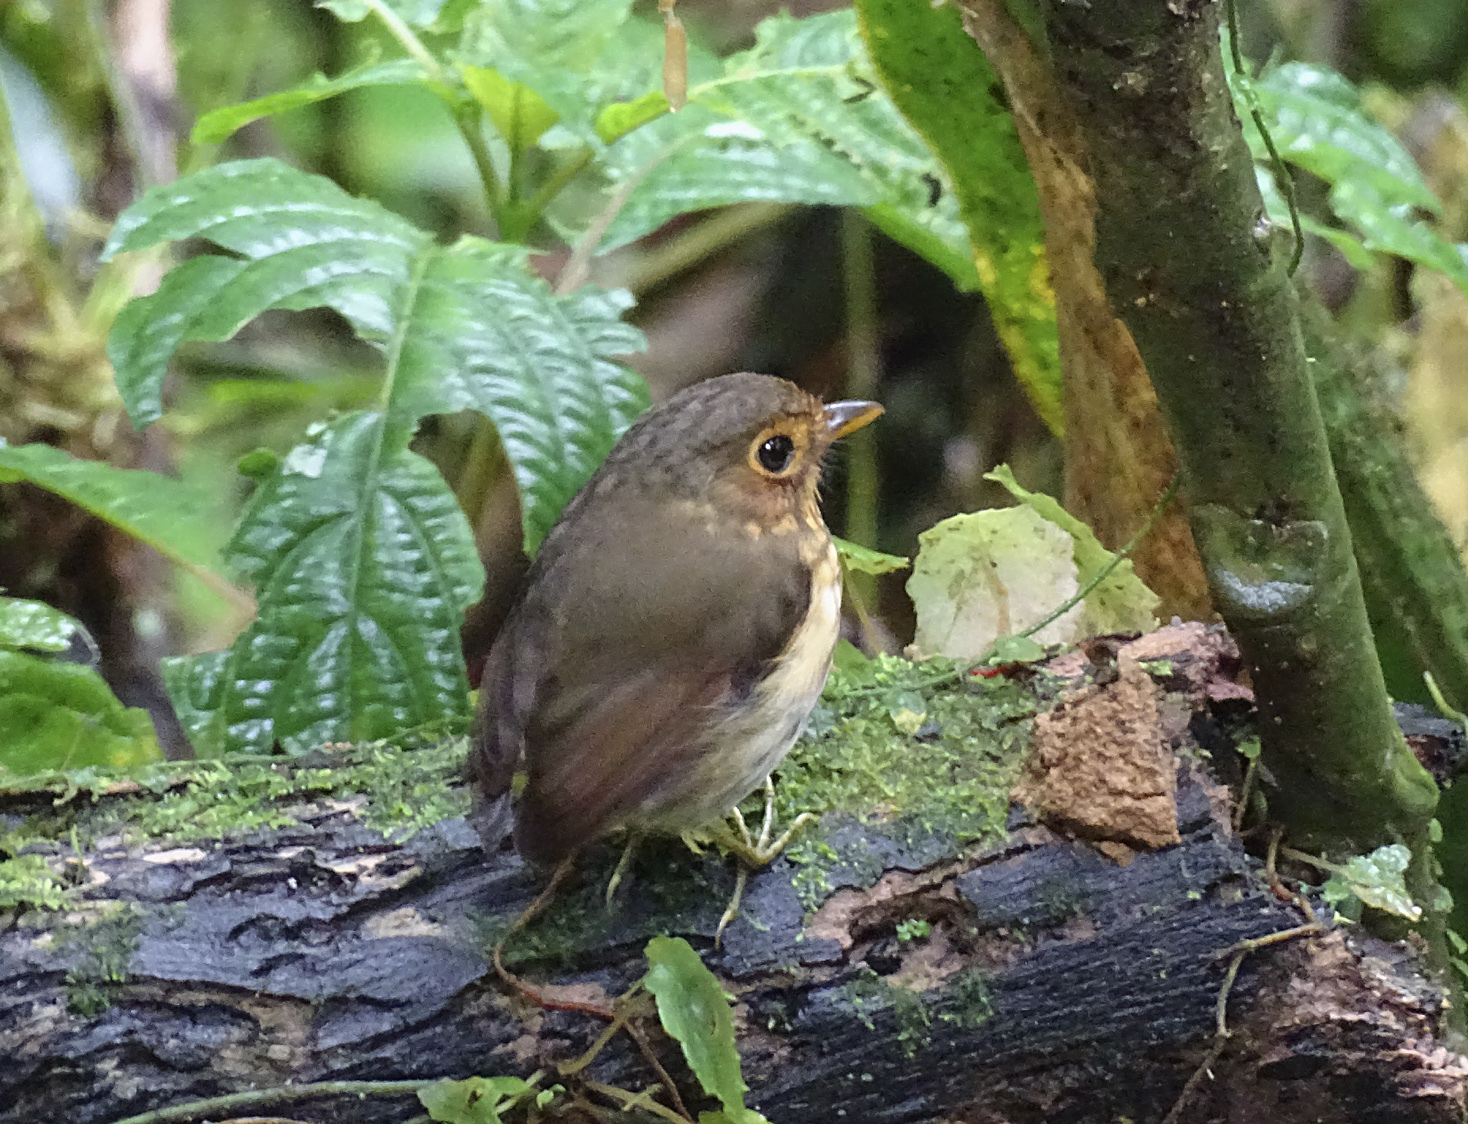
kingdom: Animalia
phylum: Chordata
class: Aves
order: Passeriformes
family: Grallariidae
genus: Grallaricula
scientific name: Grallaricula flavirostris
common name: Ochre-breasted antpitta
